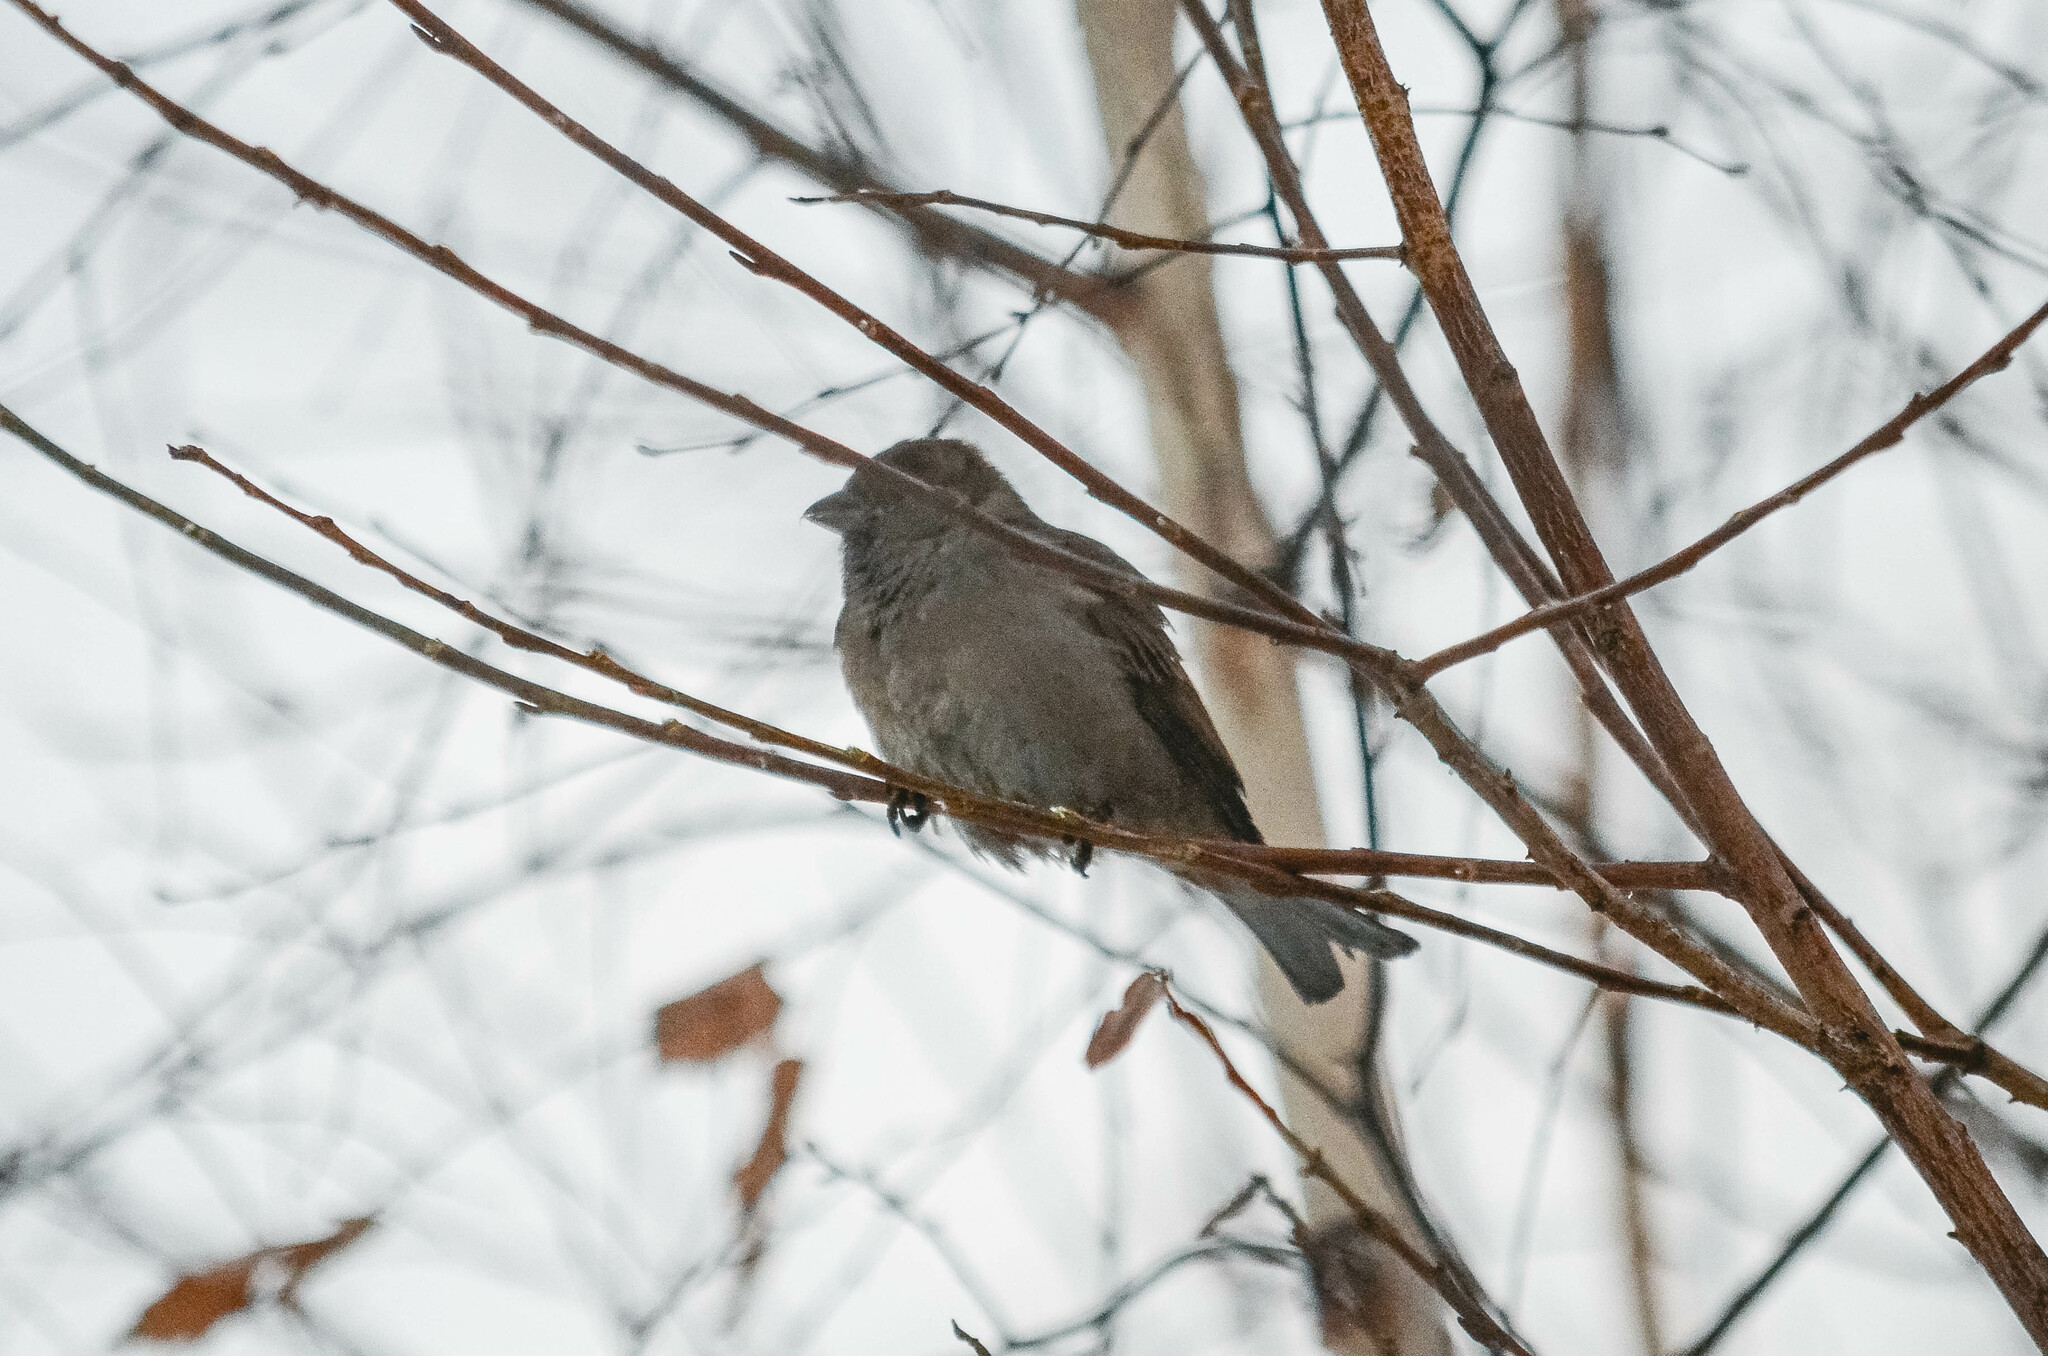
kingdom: Animalia
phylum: Chordata
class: Aves
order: Passeriformes
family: Passeridae
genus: Passer
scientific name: Passer domesticus
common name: House sparrow
